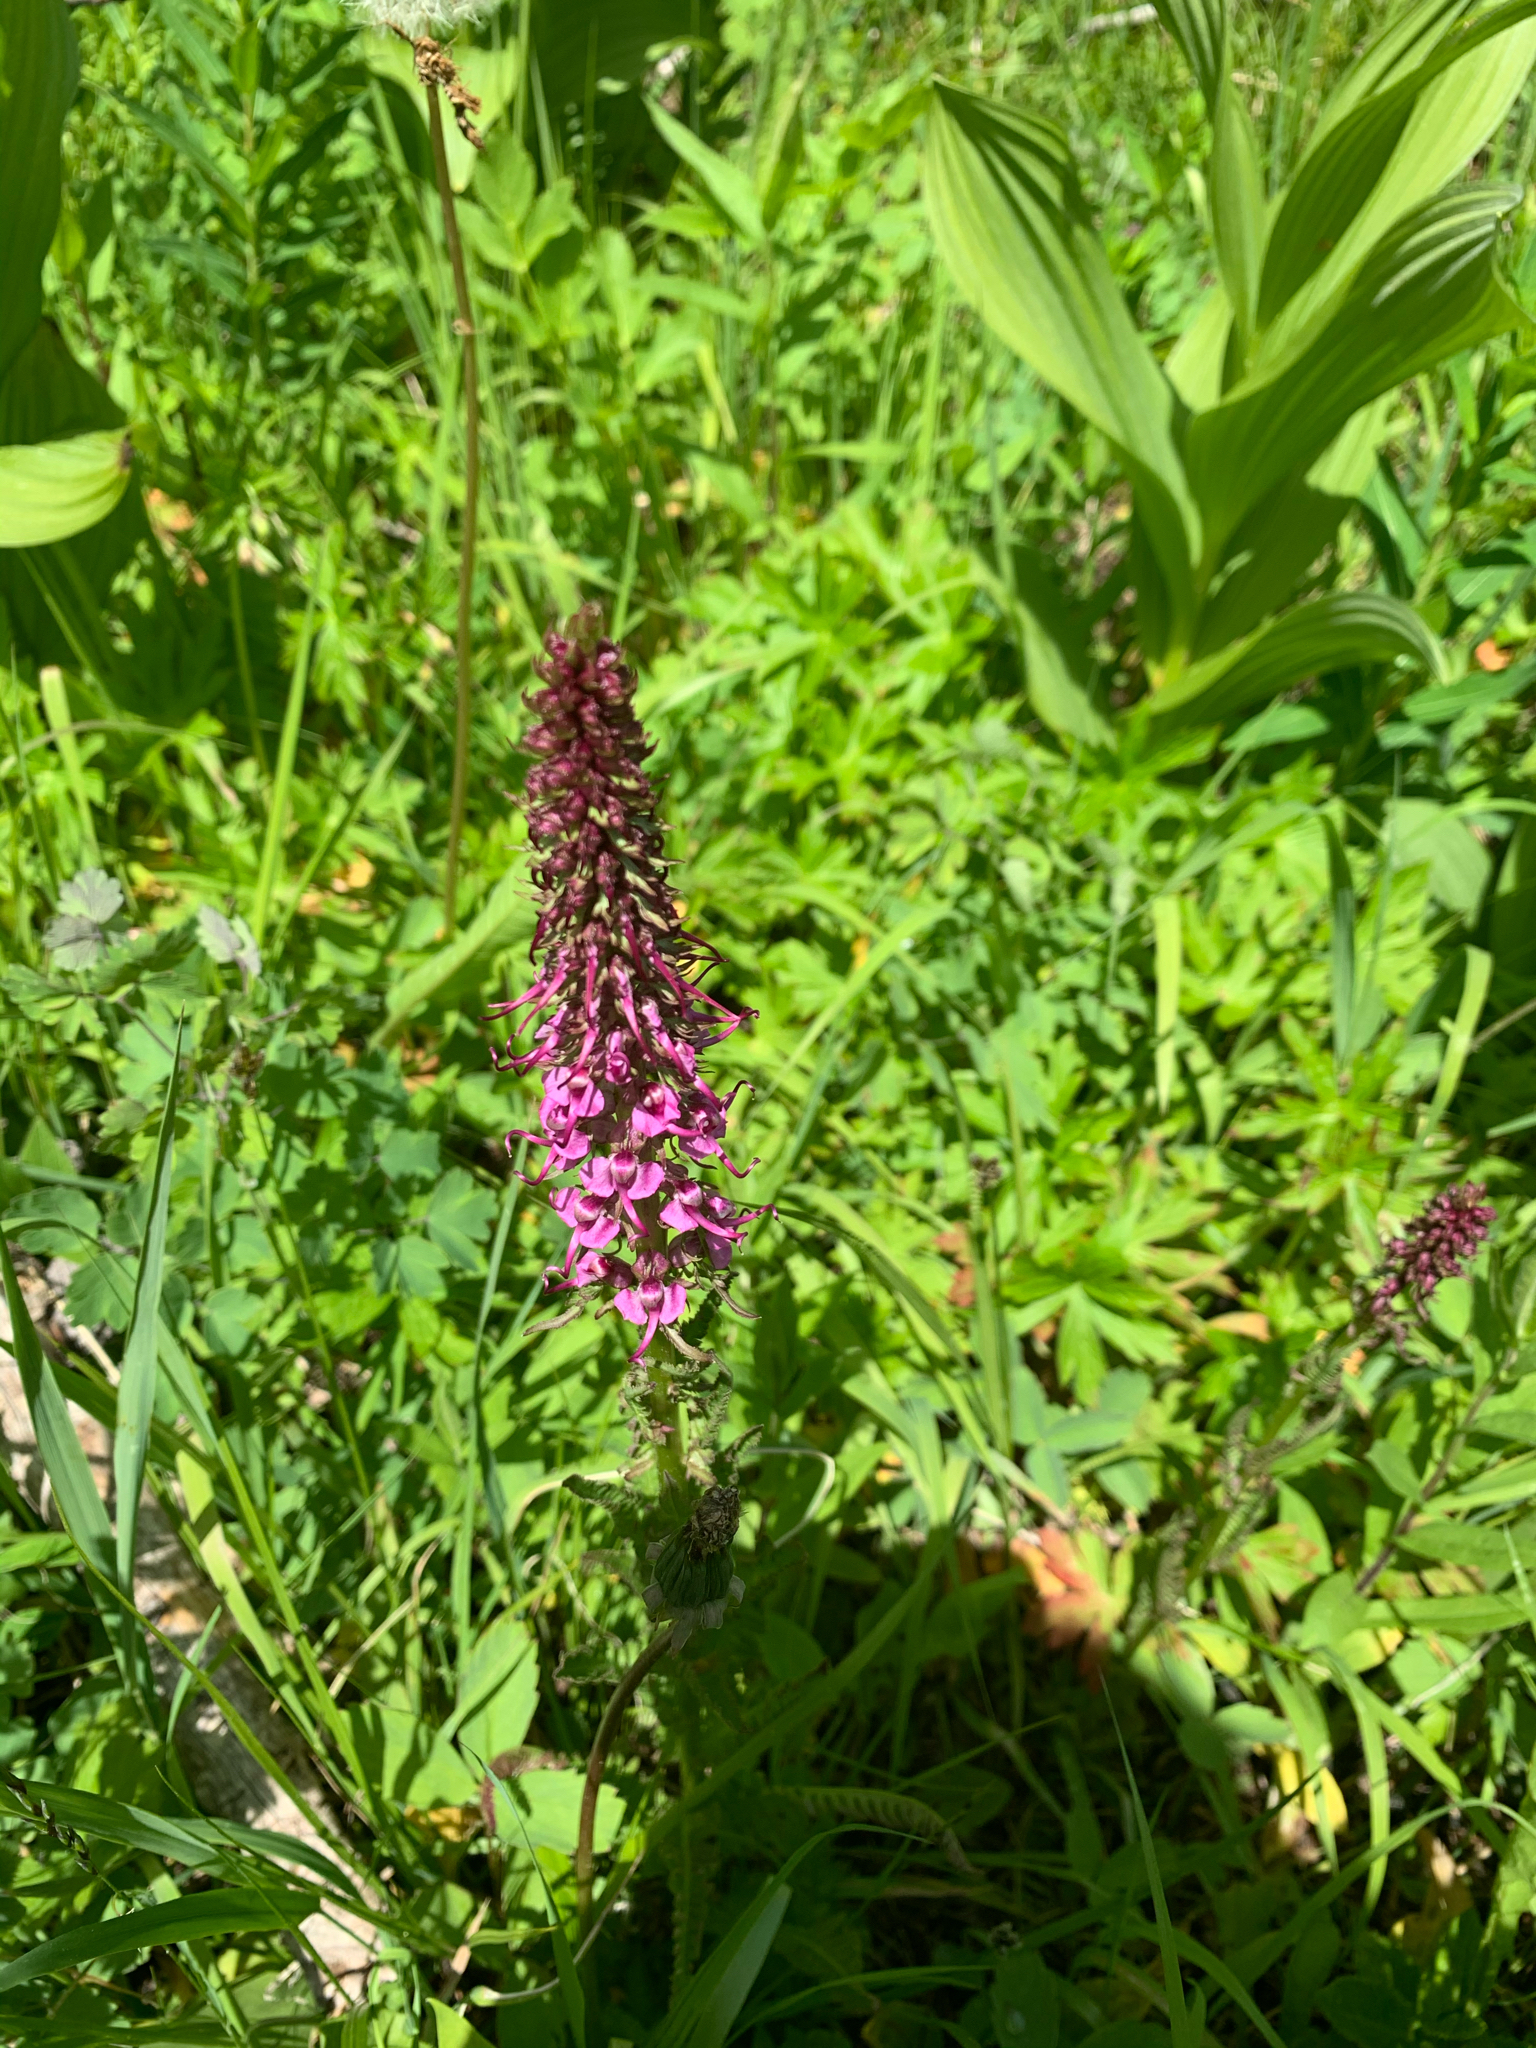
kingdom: Plantae
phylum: Tracheophyta
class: Magnoliopsida
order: Lamiales
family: Orobanchaceae
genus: Pedicularis
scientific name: Pedicularis groenlandica
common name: Elephant's-head
